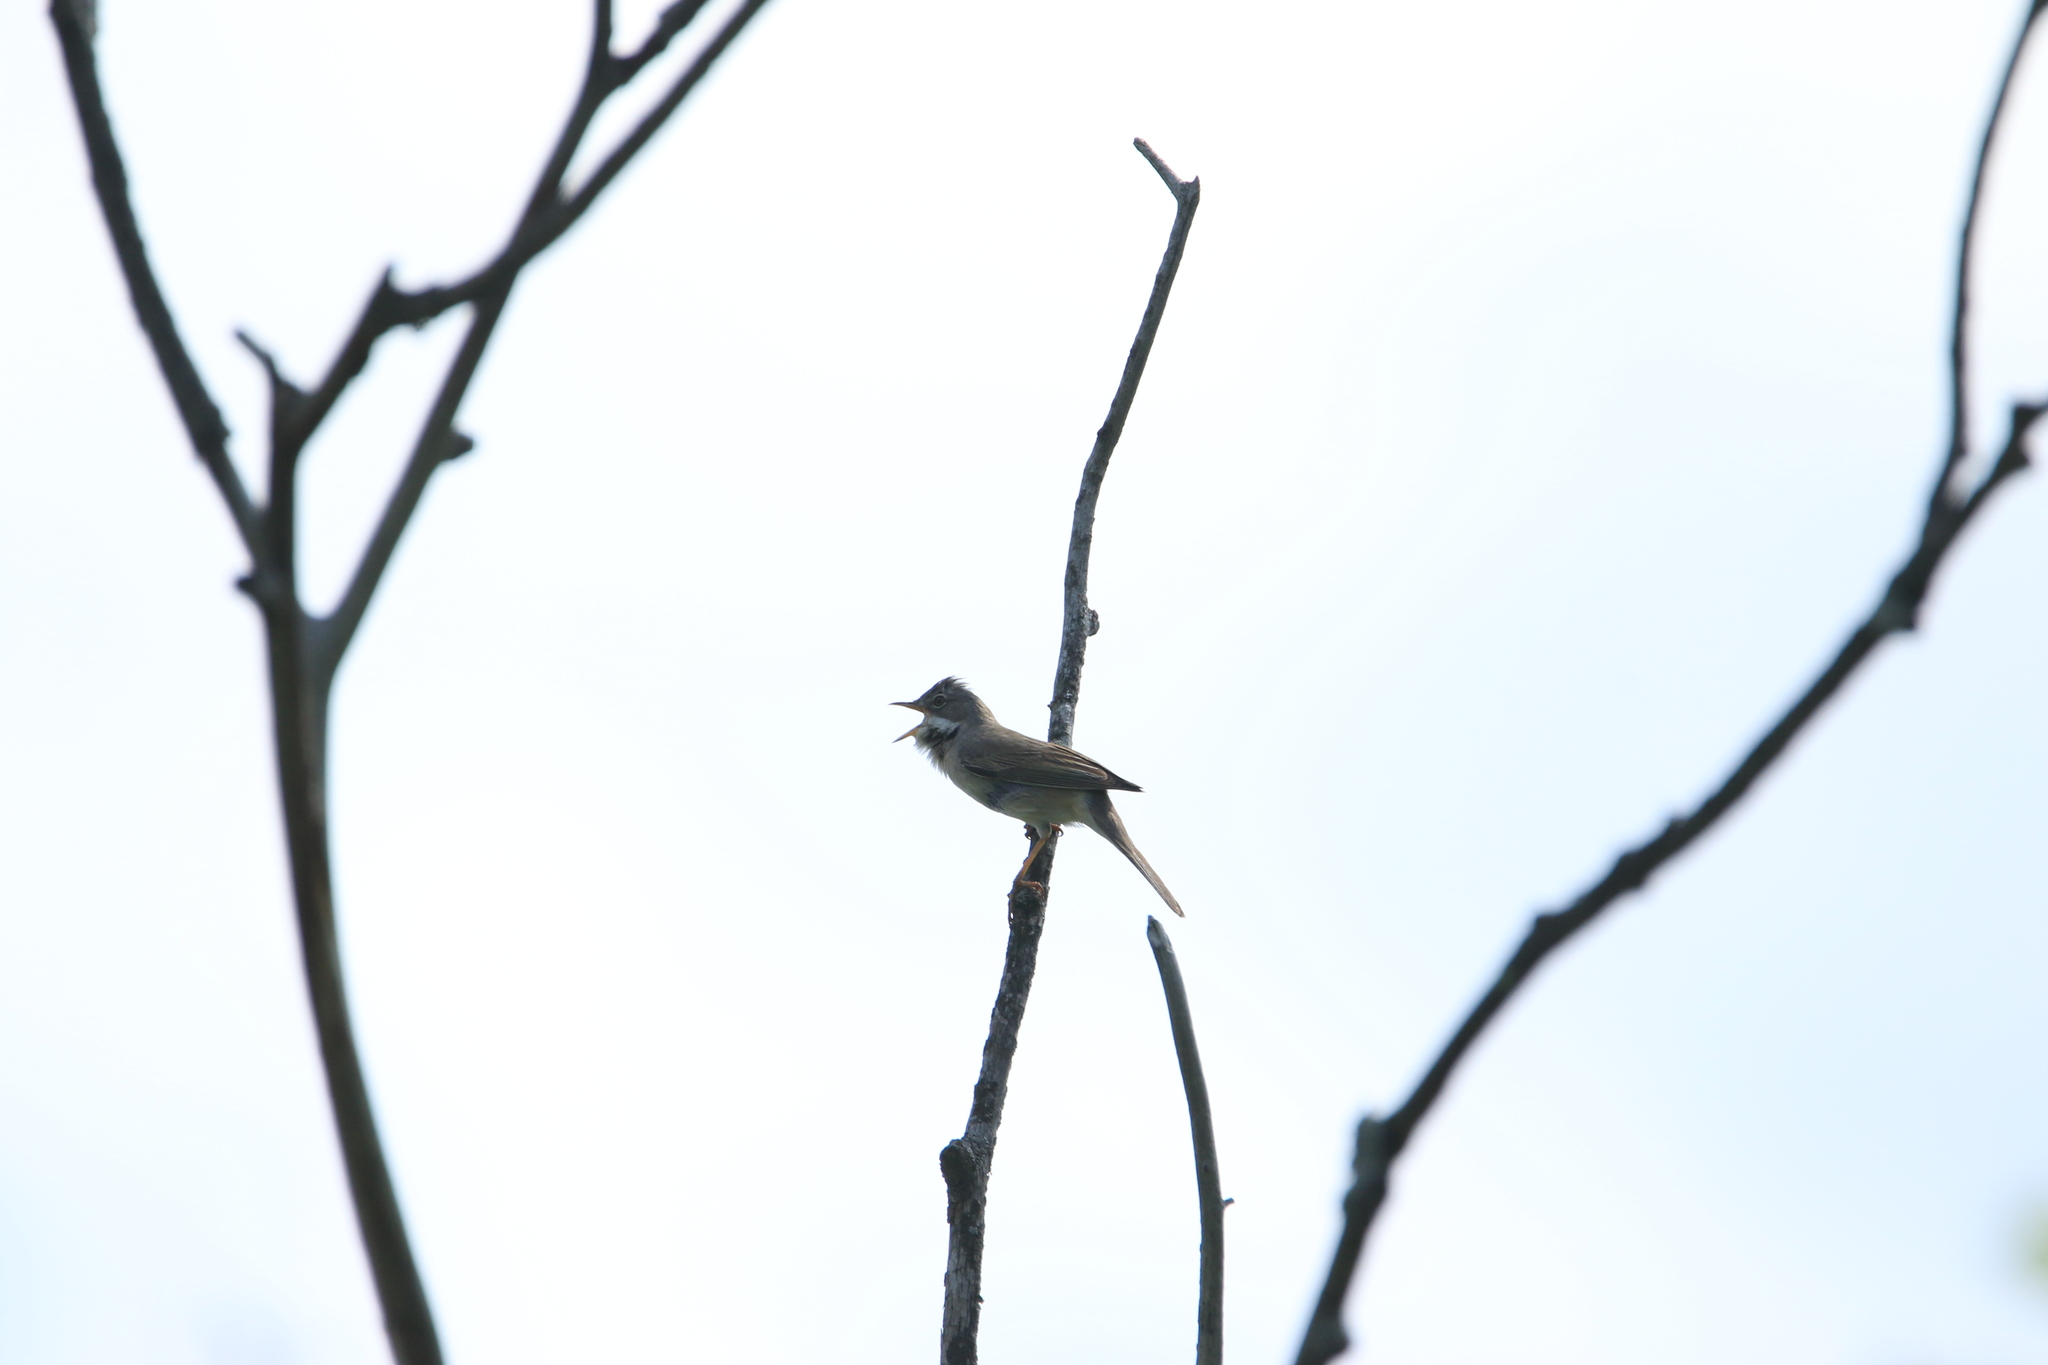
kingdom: Animalia
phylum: Chordata
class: Aves
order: Passeriformes
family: Sylviidae
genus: Sylvia
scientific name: Sylvia communis
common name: Common whitethroat
